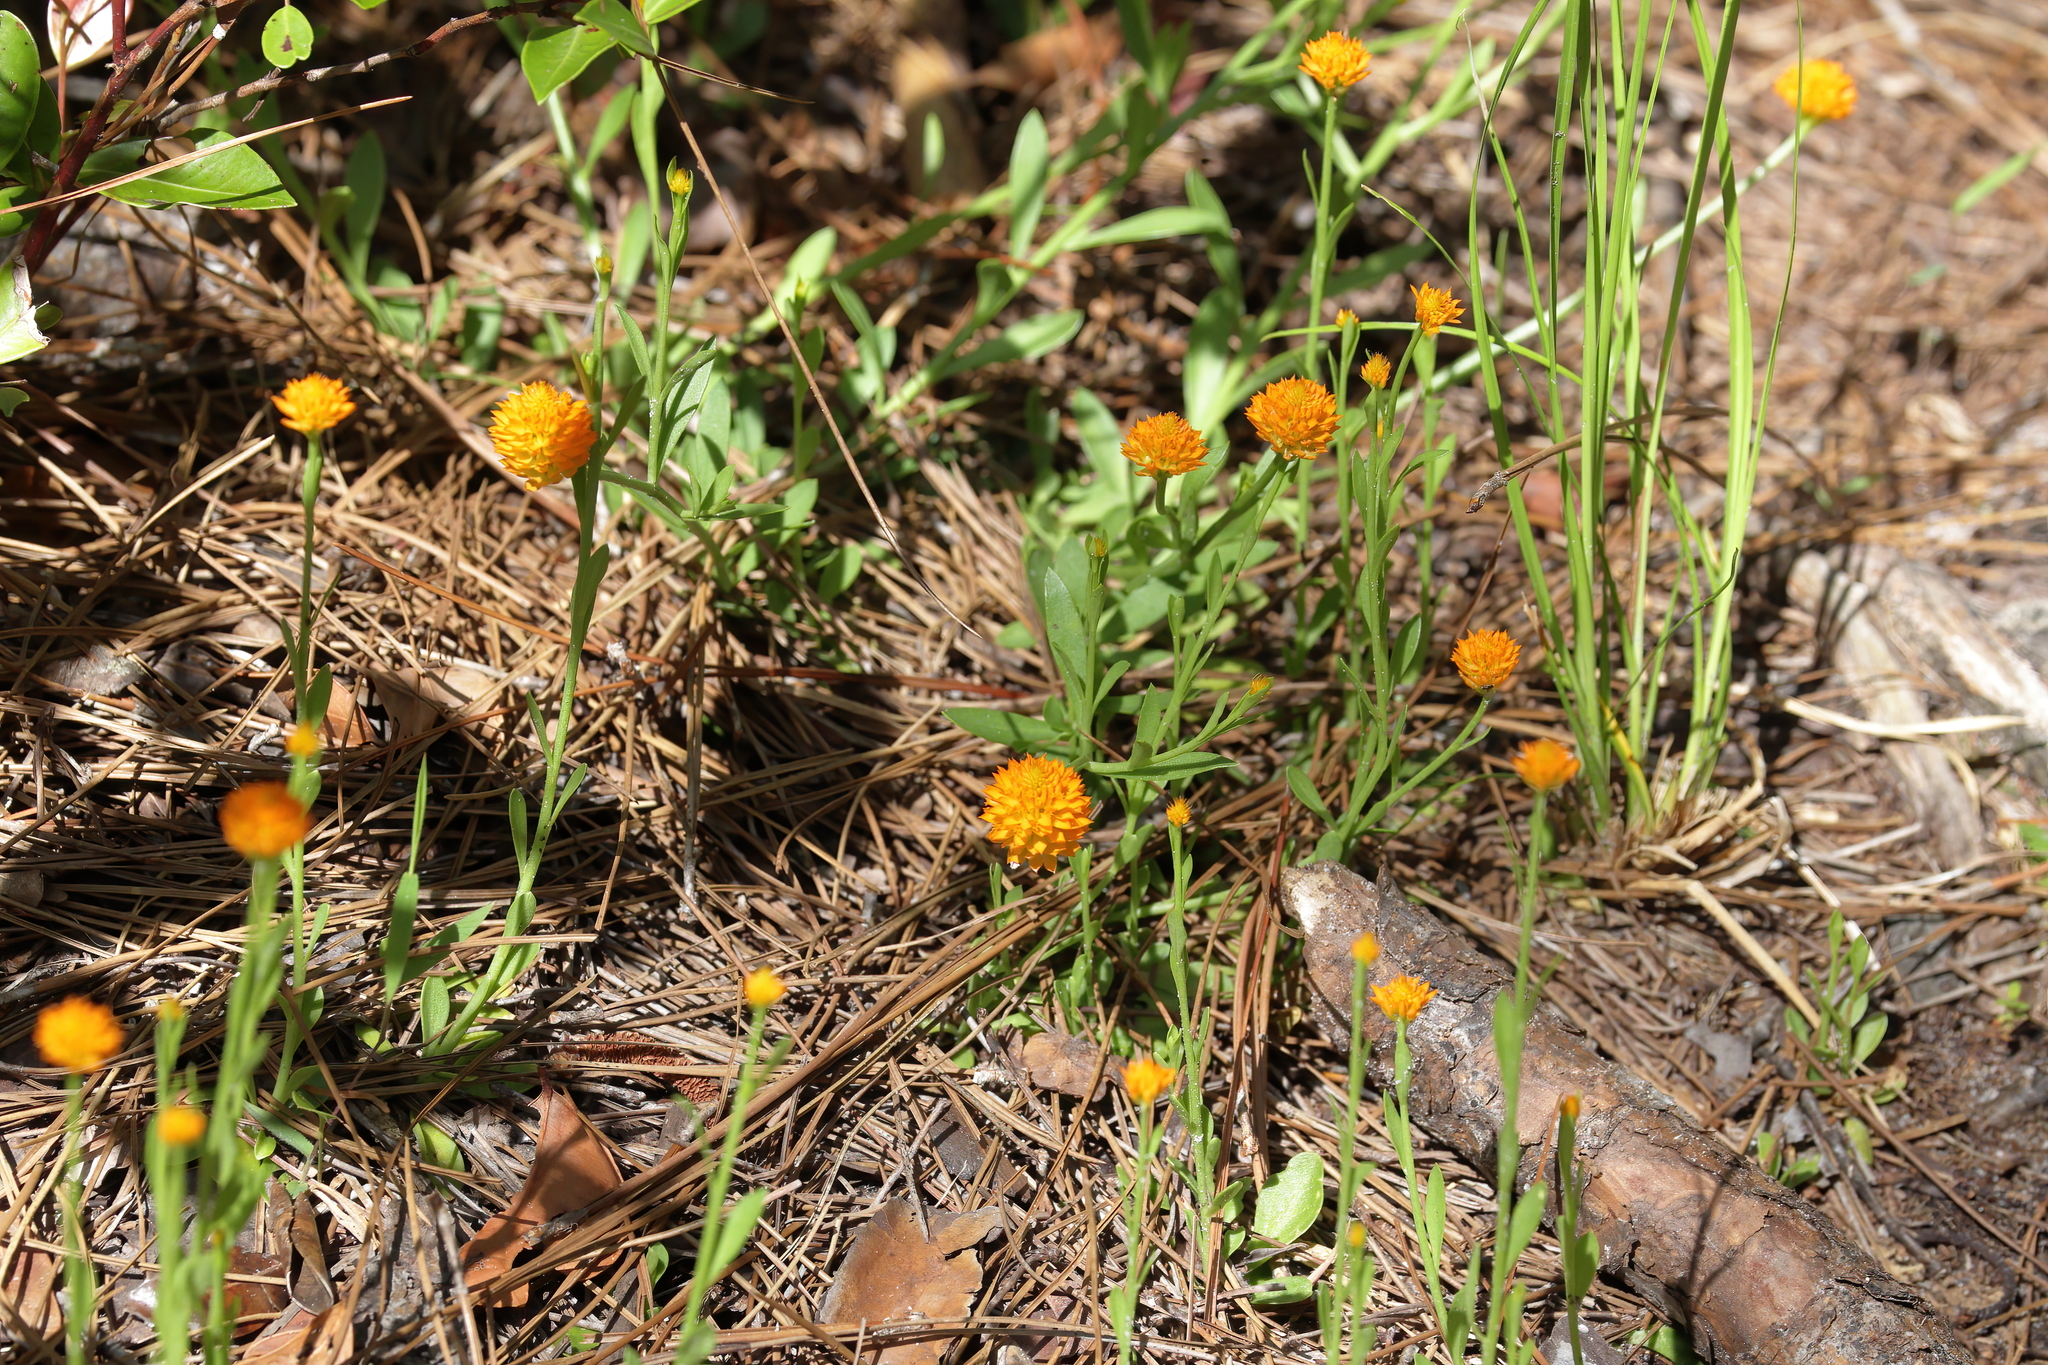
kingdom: Plantae
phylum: Tracheophyta
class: Magnoliopsida
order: Fabales
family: Polygalaceae
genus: Polygala
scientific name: Polygala lutea
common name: Orange milkwort
